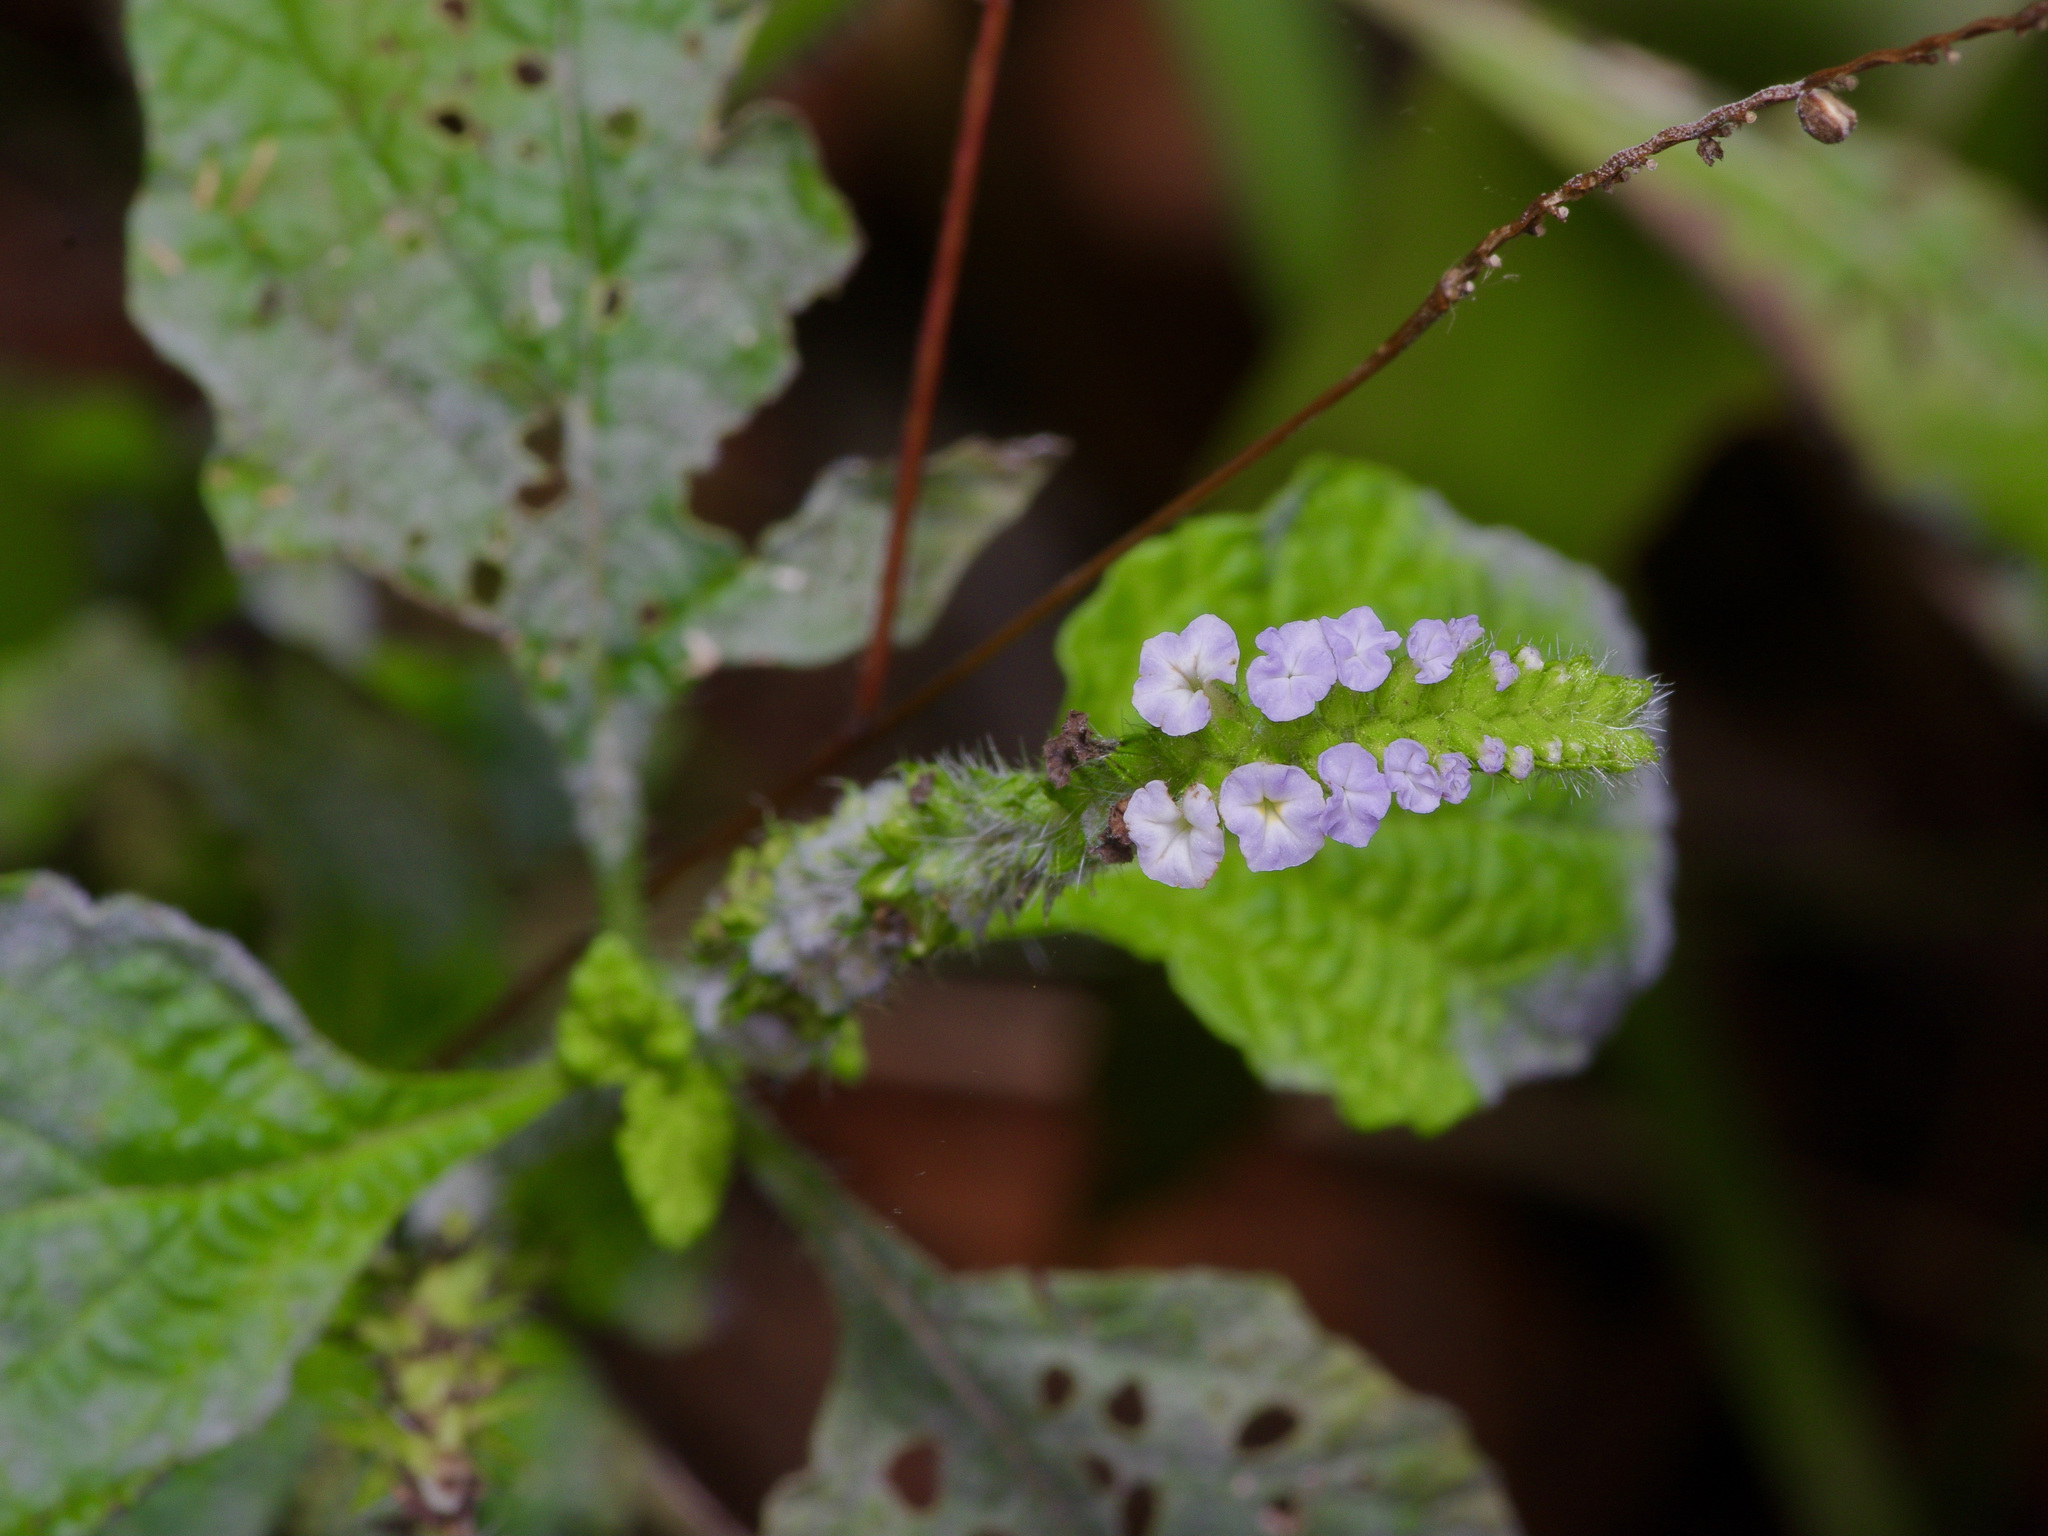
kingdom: Plantae
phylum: Tracheophyta
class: Magnoliopsida
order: Boraginales
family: Heliotropiaceae
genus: Heliotropium
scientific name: Heliotropium indicum
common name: Indian heliotrope
